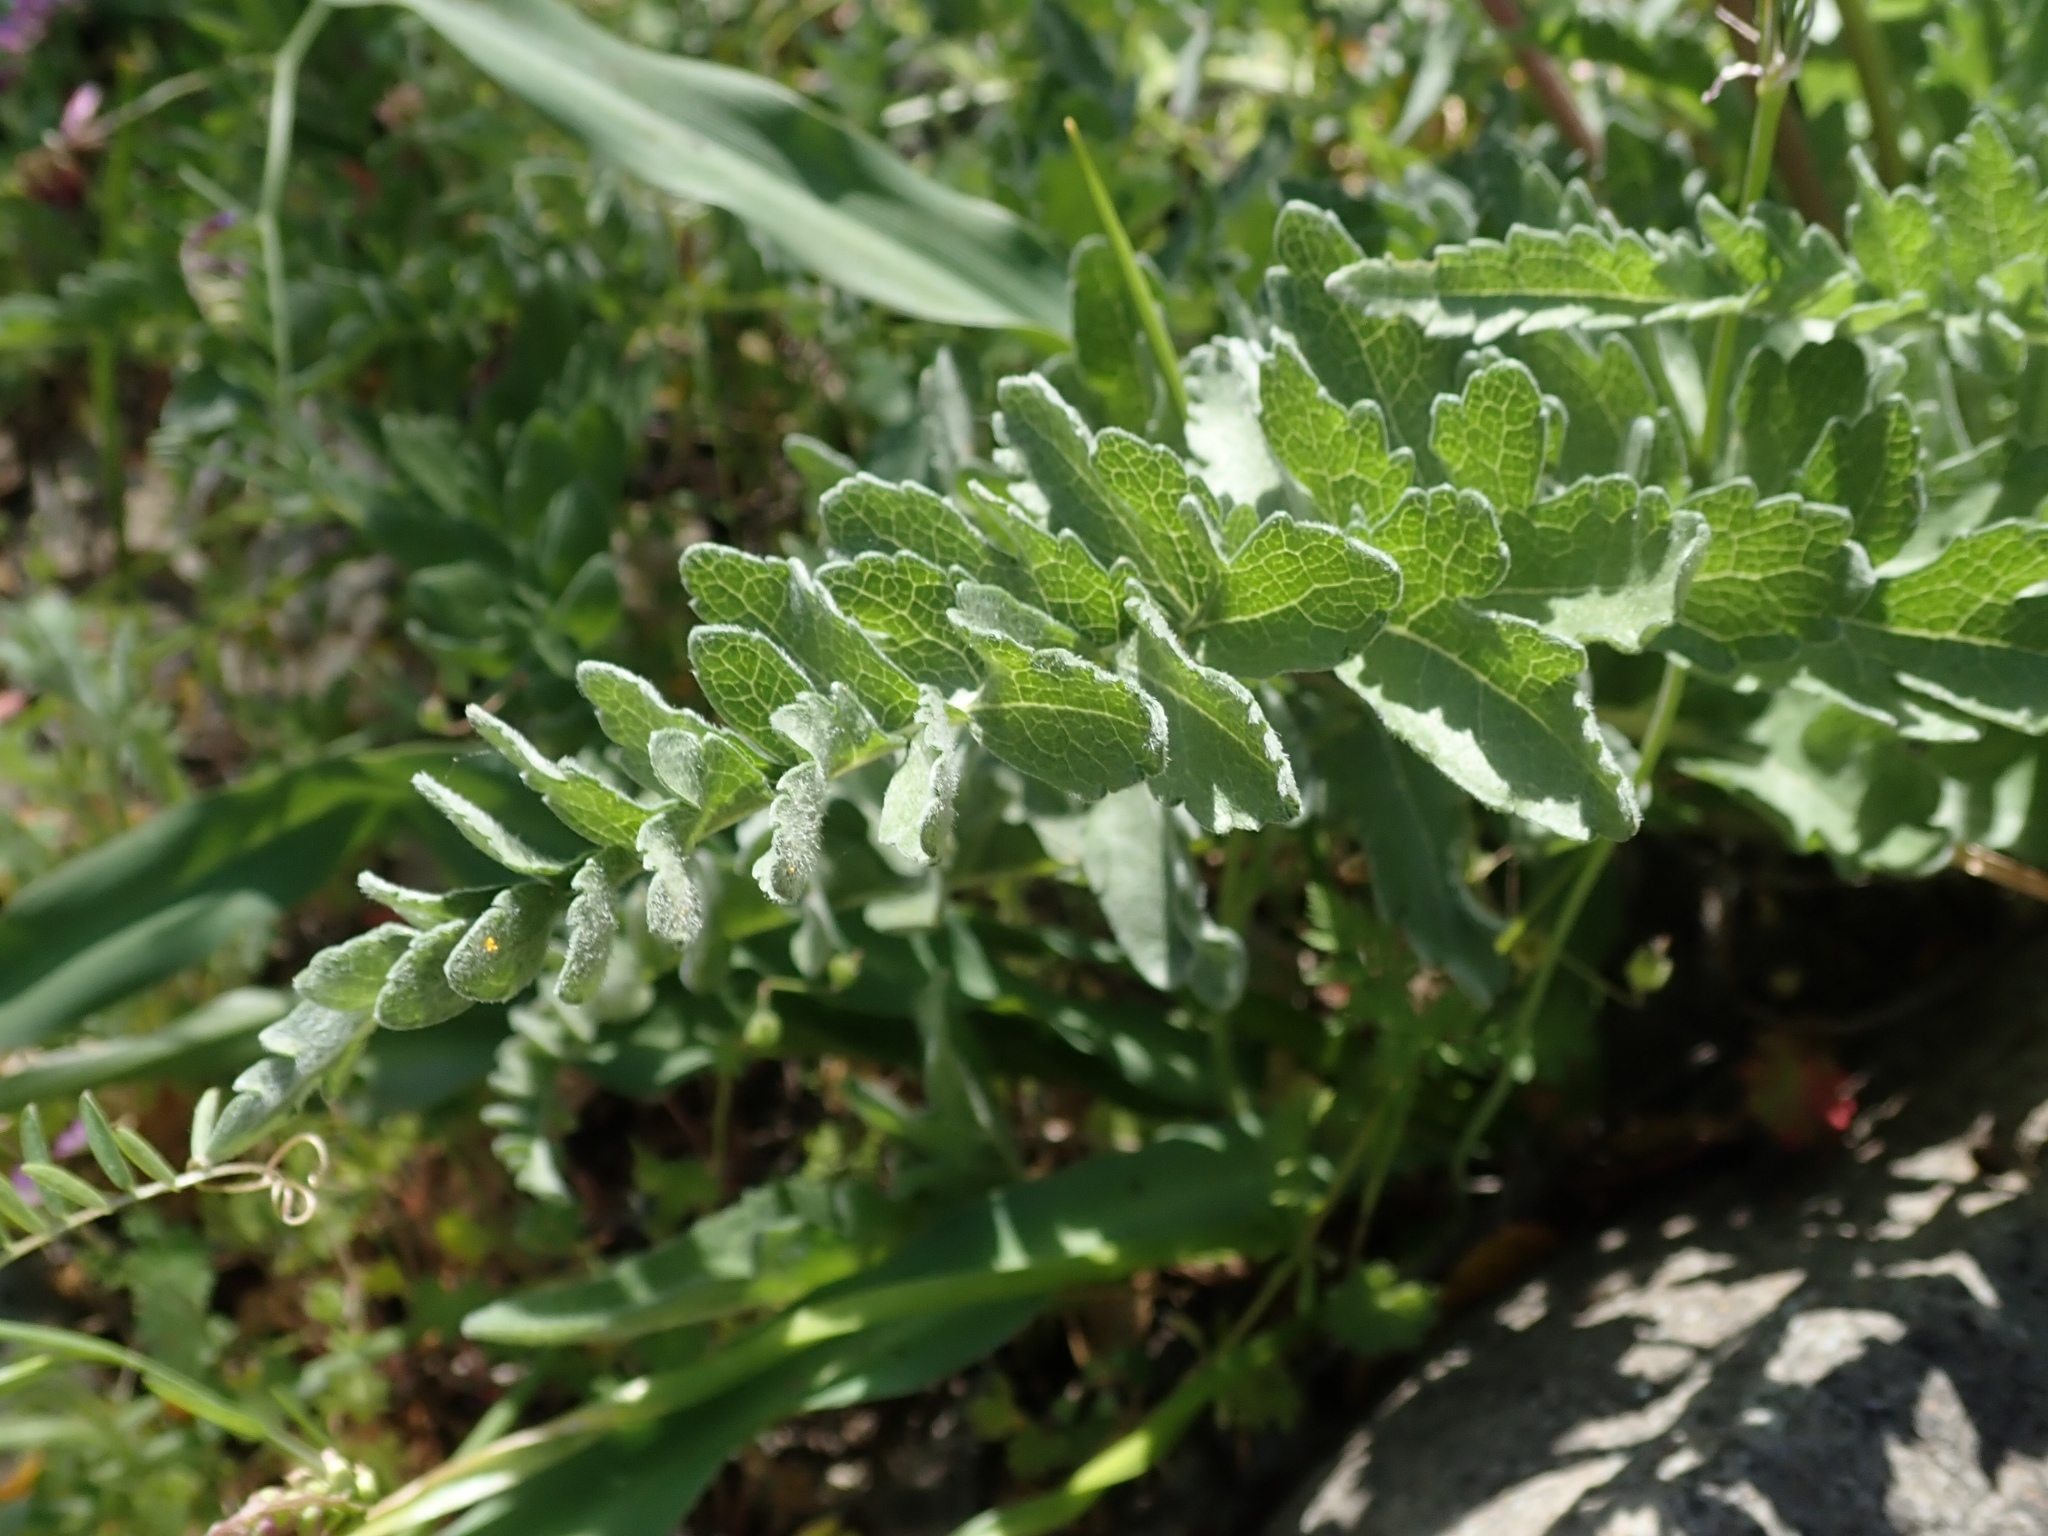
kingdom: Plantae
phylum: Tracheophyta
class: Magnoliopsida
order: Asterales
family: Asteraceae
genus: Balsamorhiza
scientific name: Balsamorhiza macrolepis
